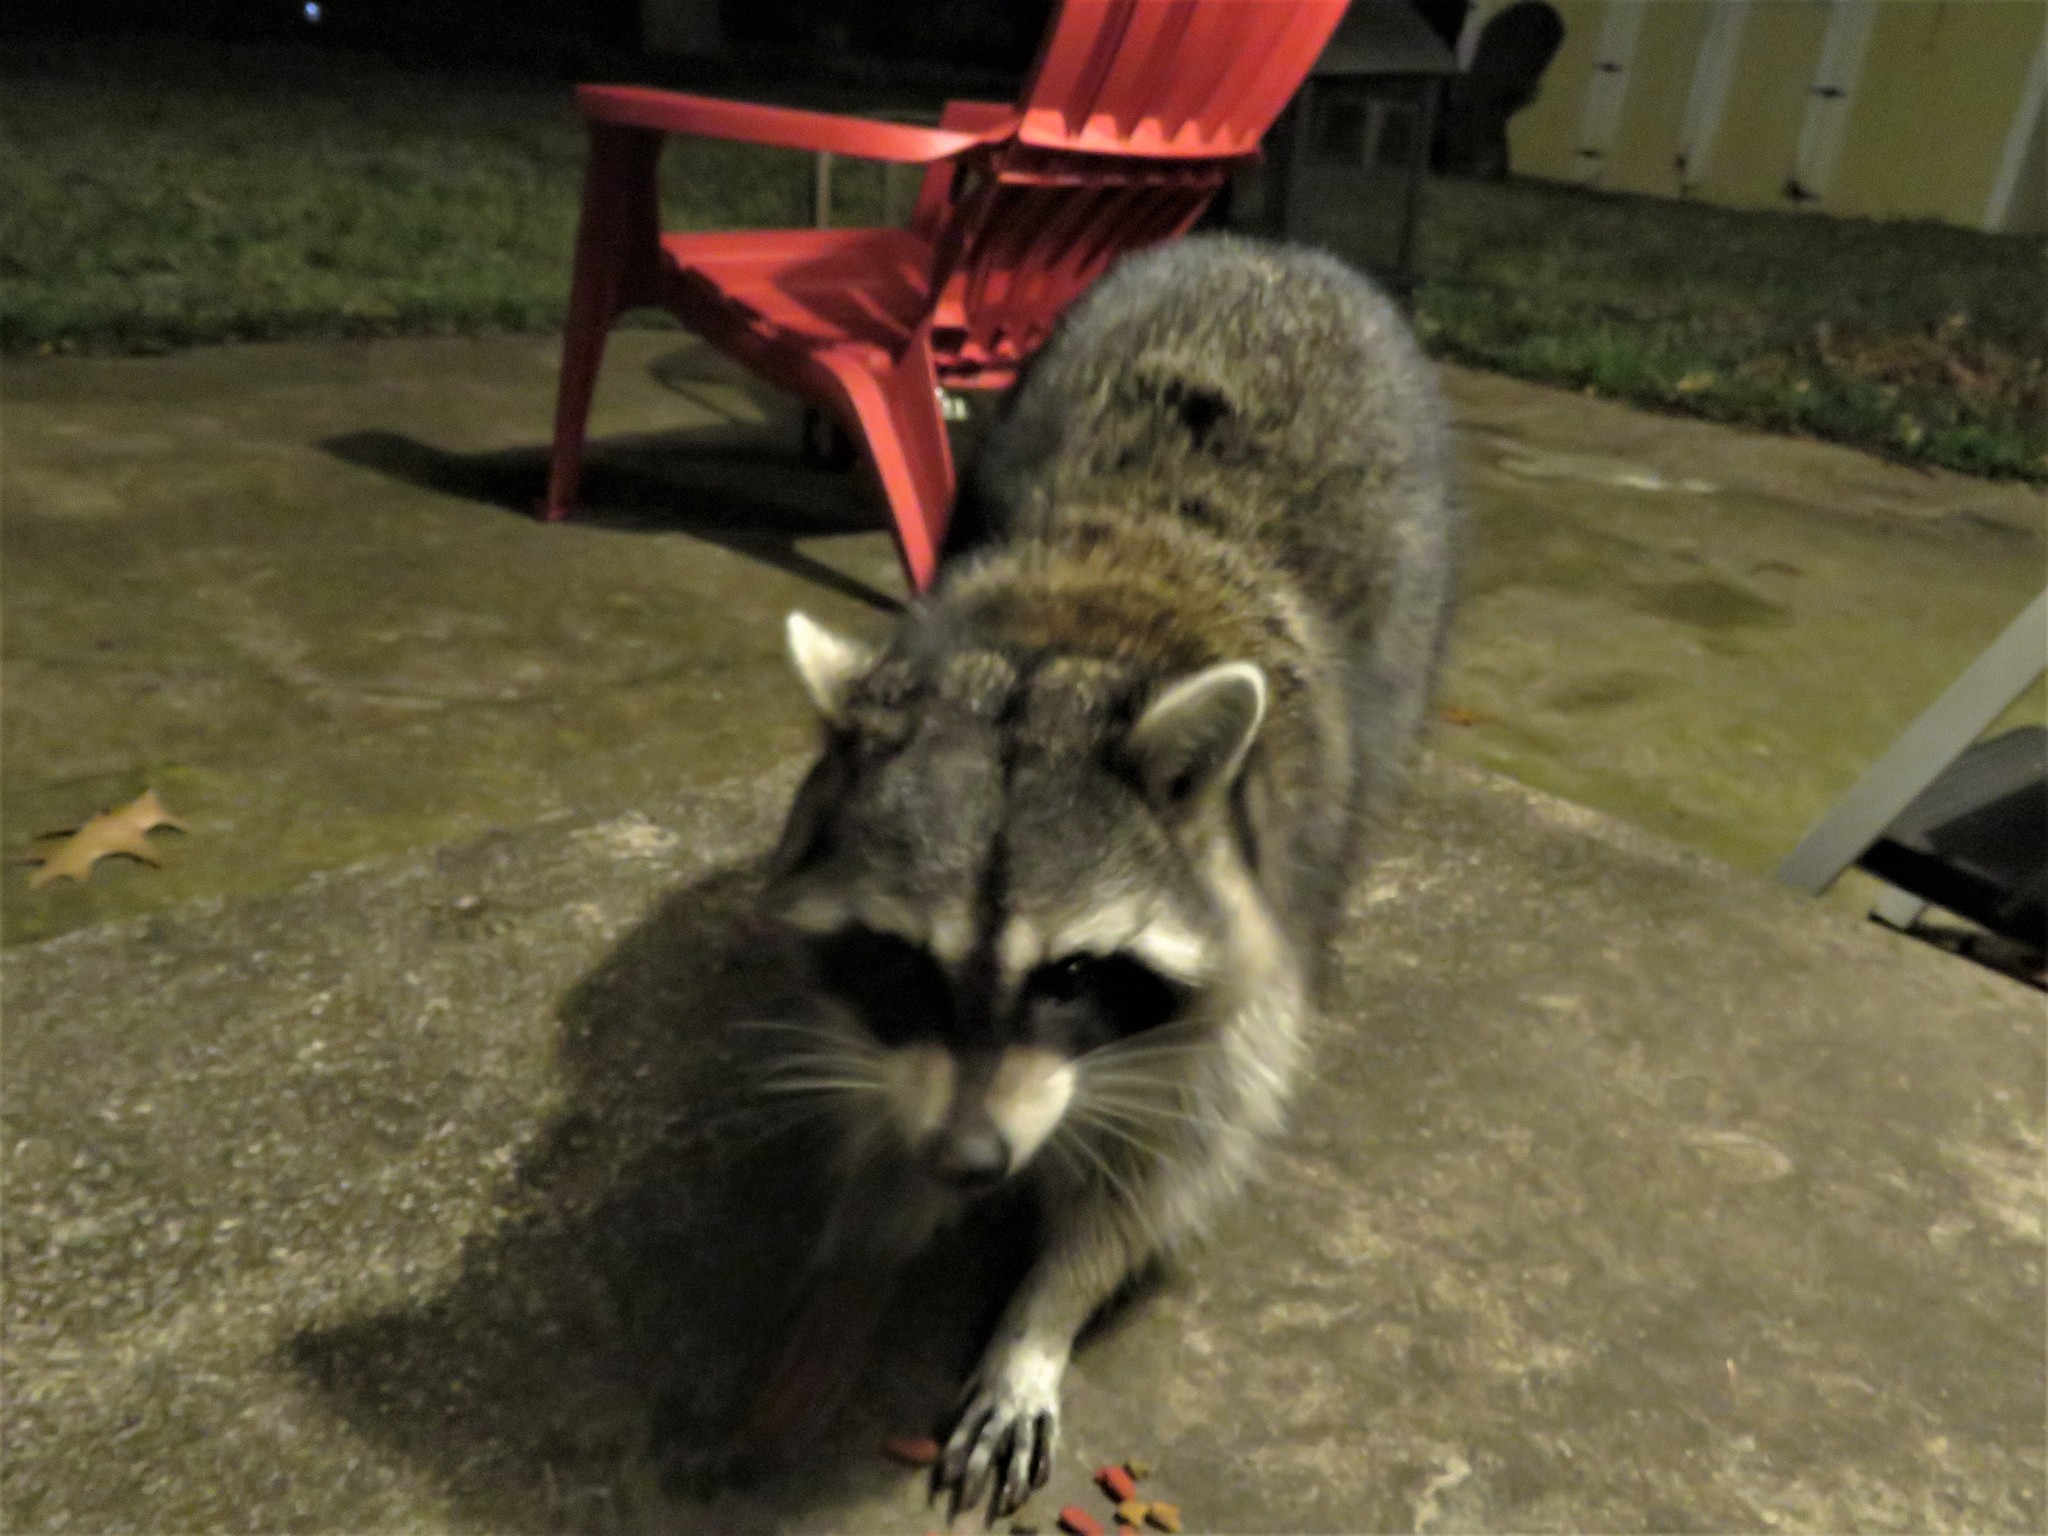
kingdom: Animalia
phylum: Chordata
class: Mammalia
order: Carnivora
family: Procyonidae
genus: Procyon
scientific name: Procyon lotor
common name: Raccoon
